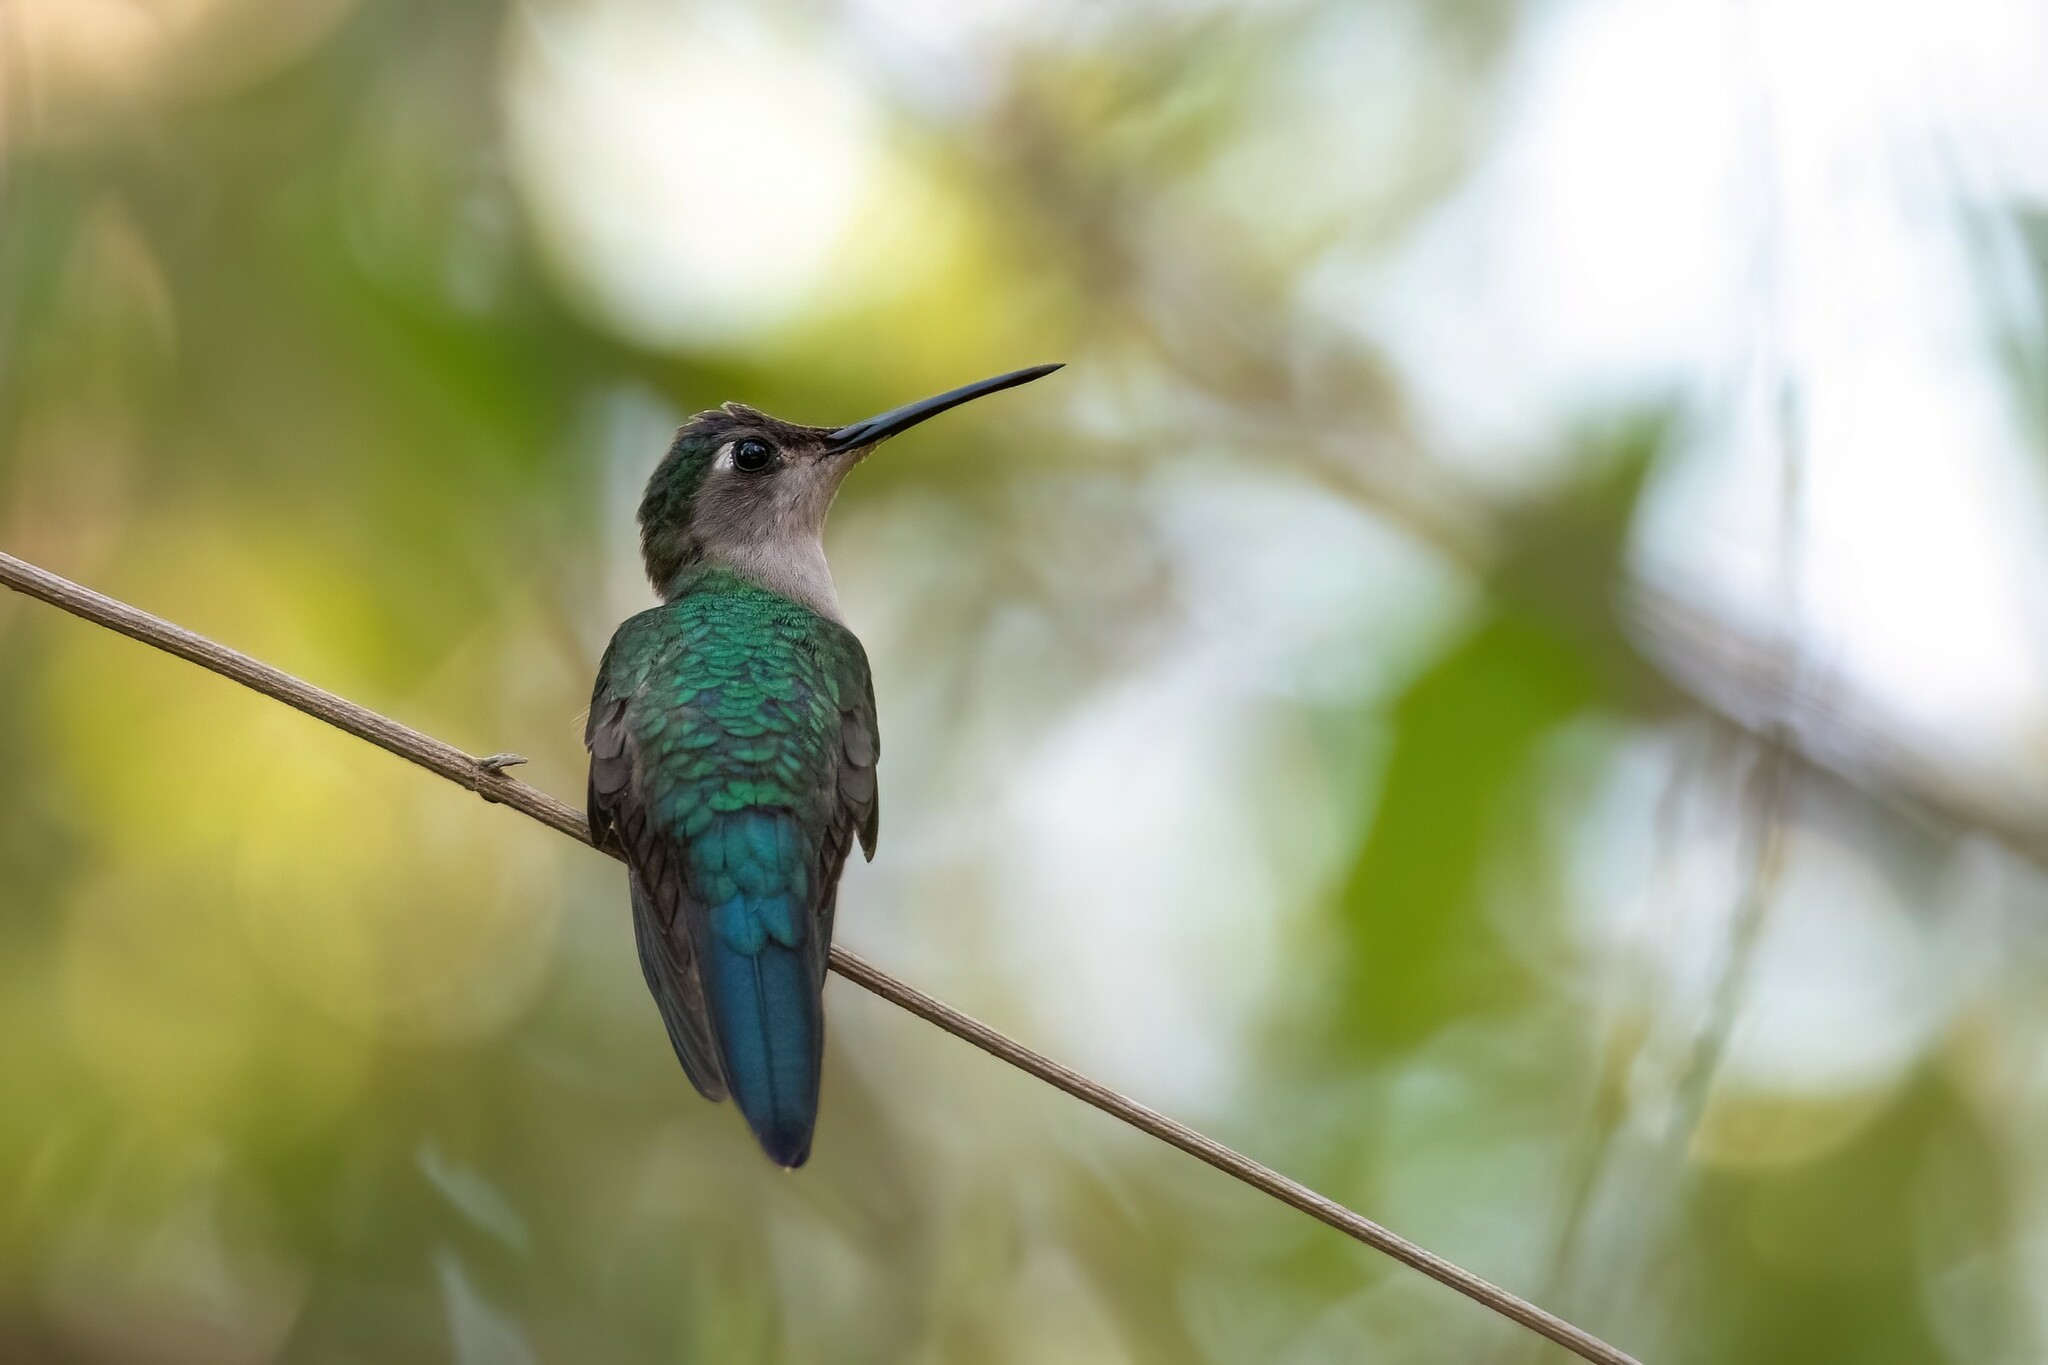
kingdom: Animalia
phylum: Chordata
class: Aves
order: Apodiformes
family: Trochilidae
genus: Pampa
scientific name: Pampa curvipennis
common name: Curve-winged sabrewing
